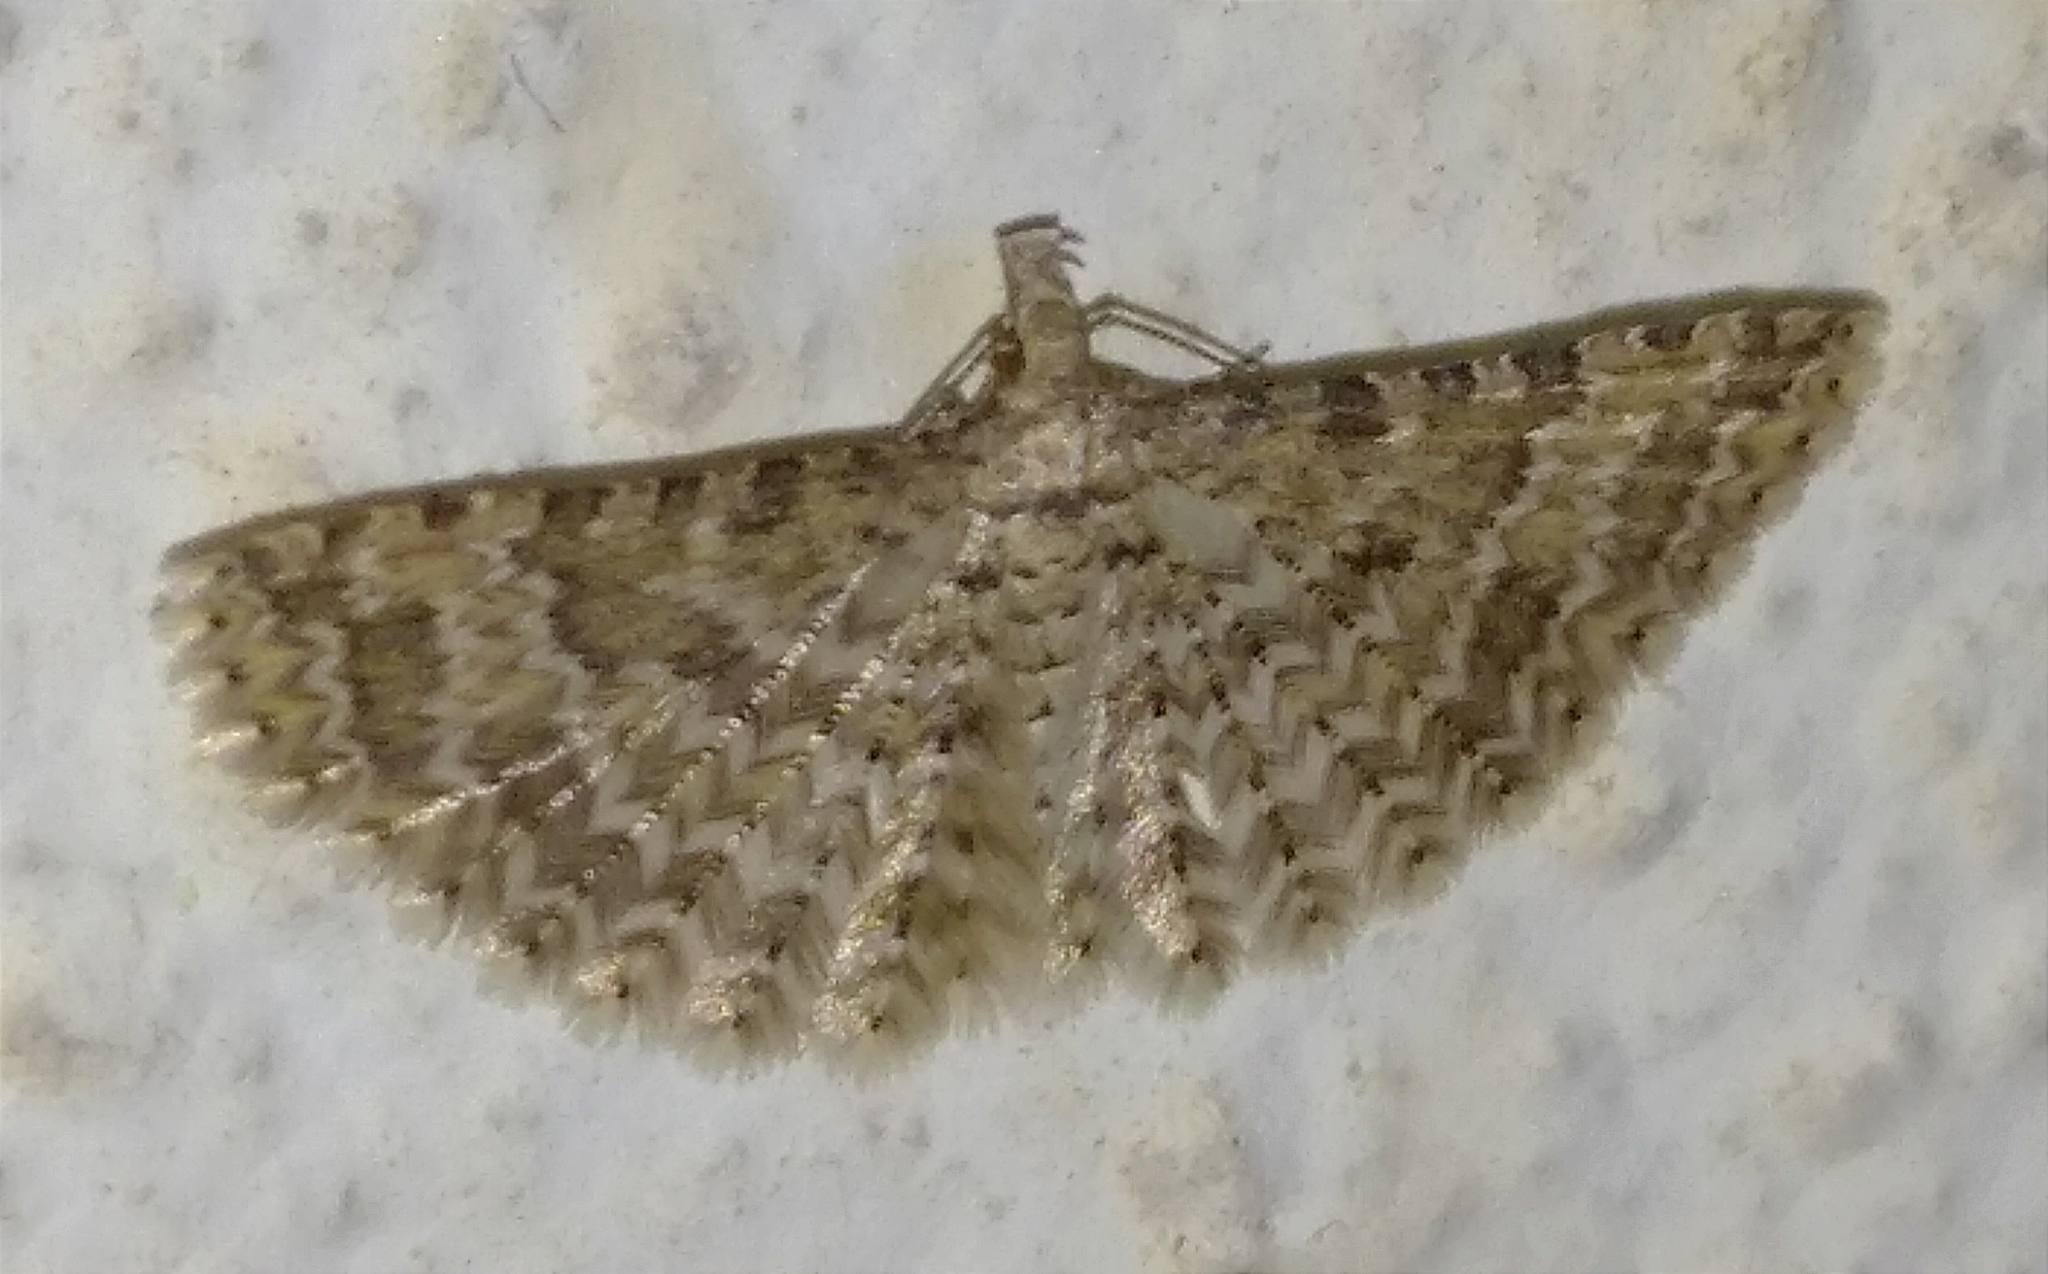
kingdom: Animalia
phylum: Arthropoda
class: Insecta
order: Lepidoptera
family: Alucitidae
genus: Alucita
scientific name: Alucita
